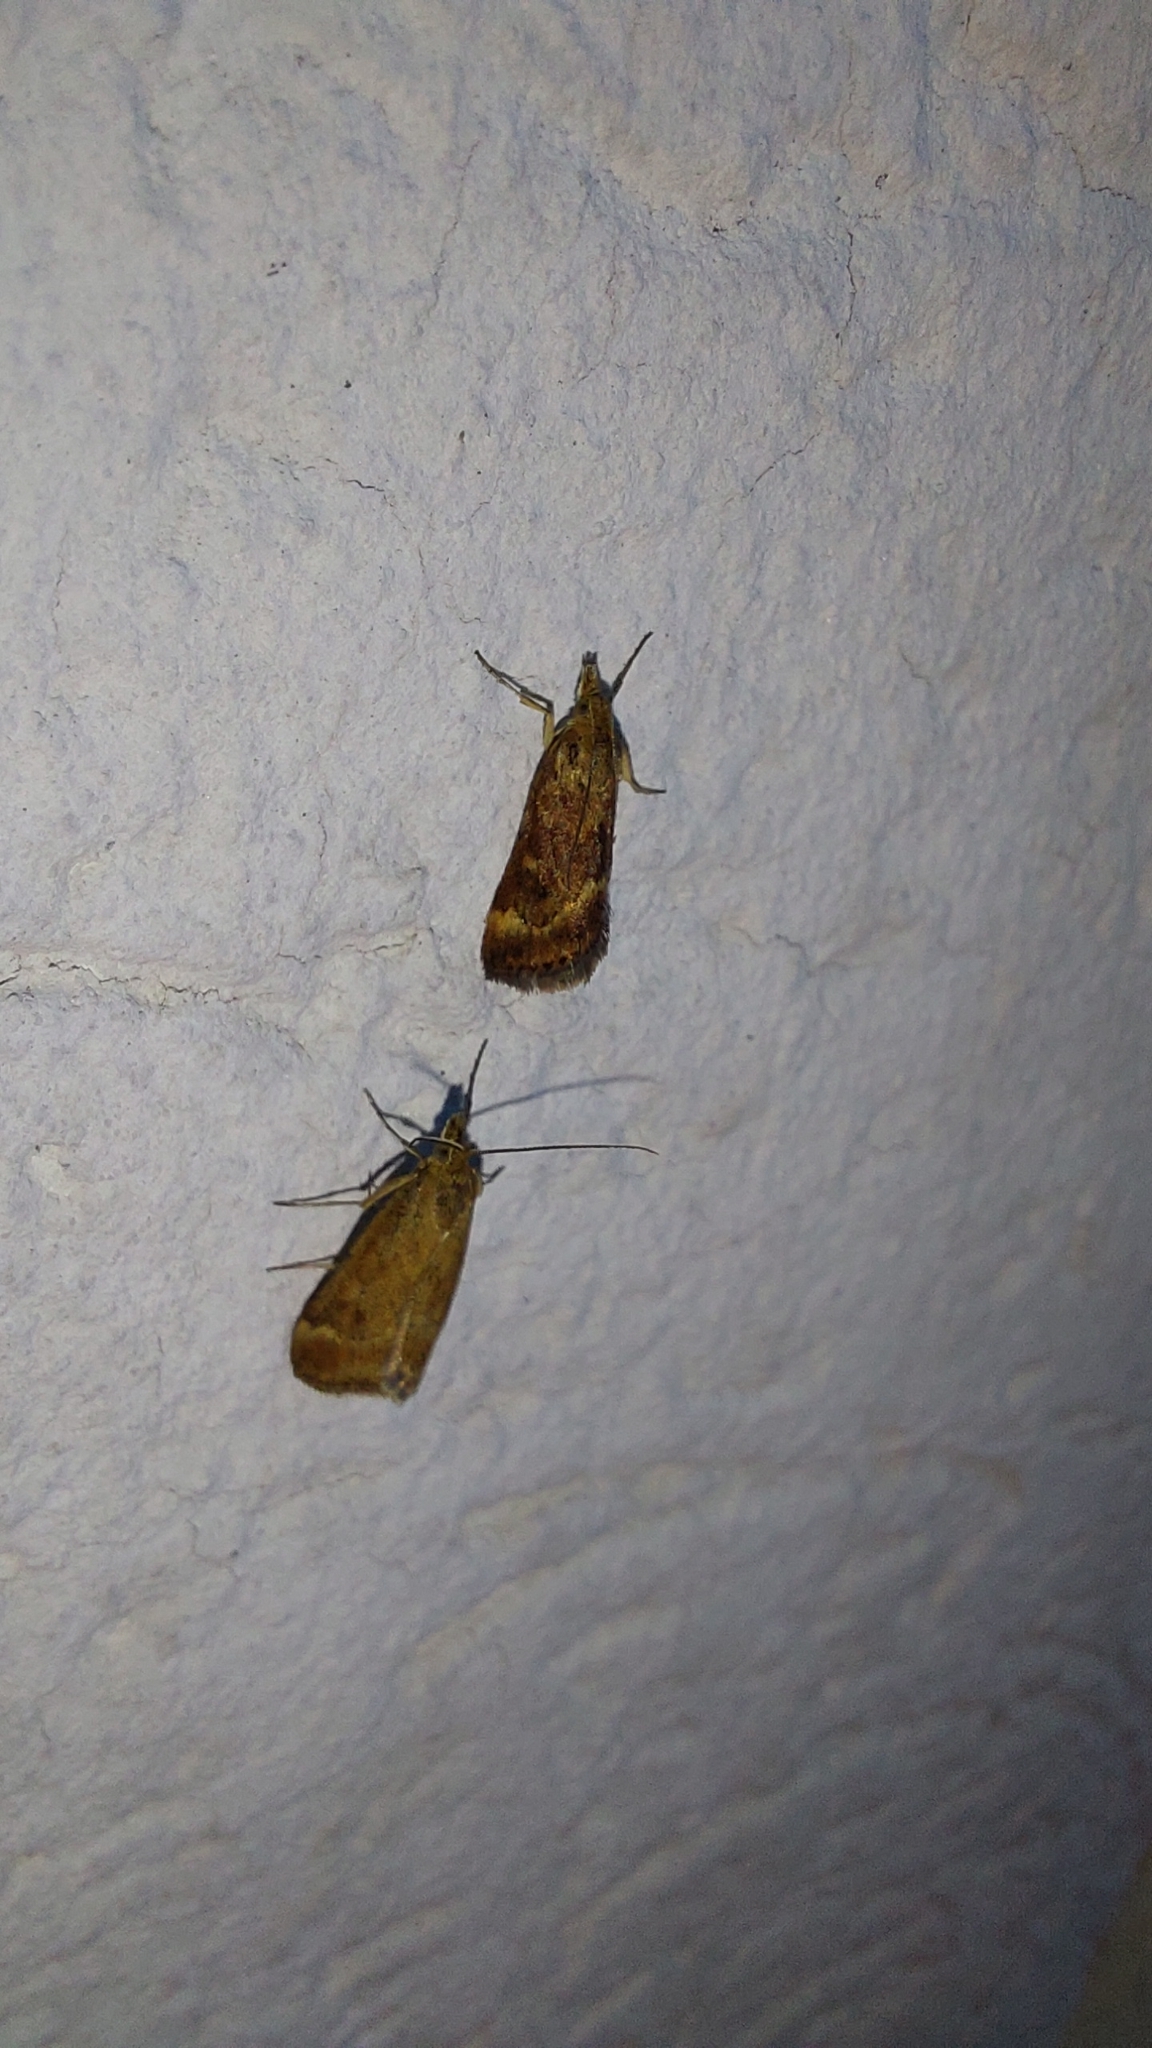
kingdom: Animalia
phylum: Arthropoda
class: Insecta
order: Lepidoptera
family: Crambidae
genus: Pyrausta
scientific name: Pyrausta despicata
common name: Straw-barred pearl
